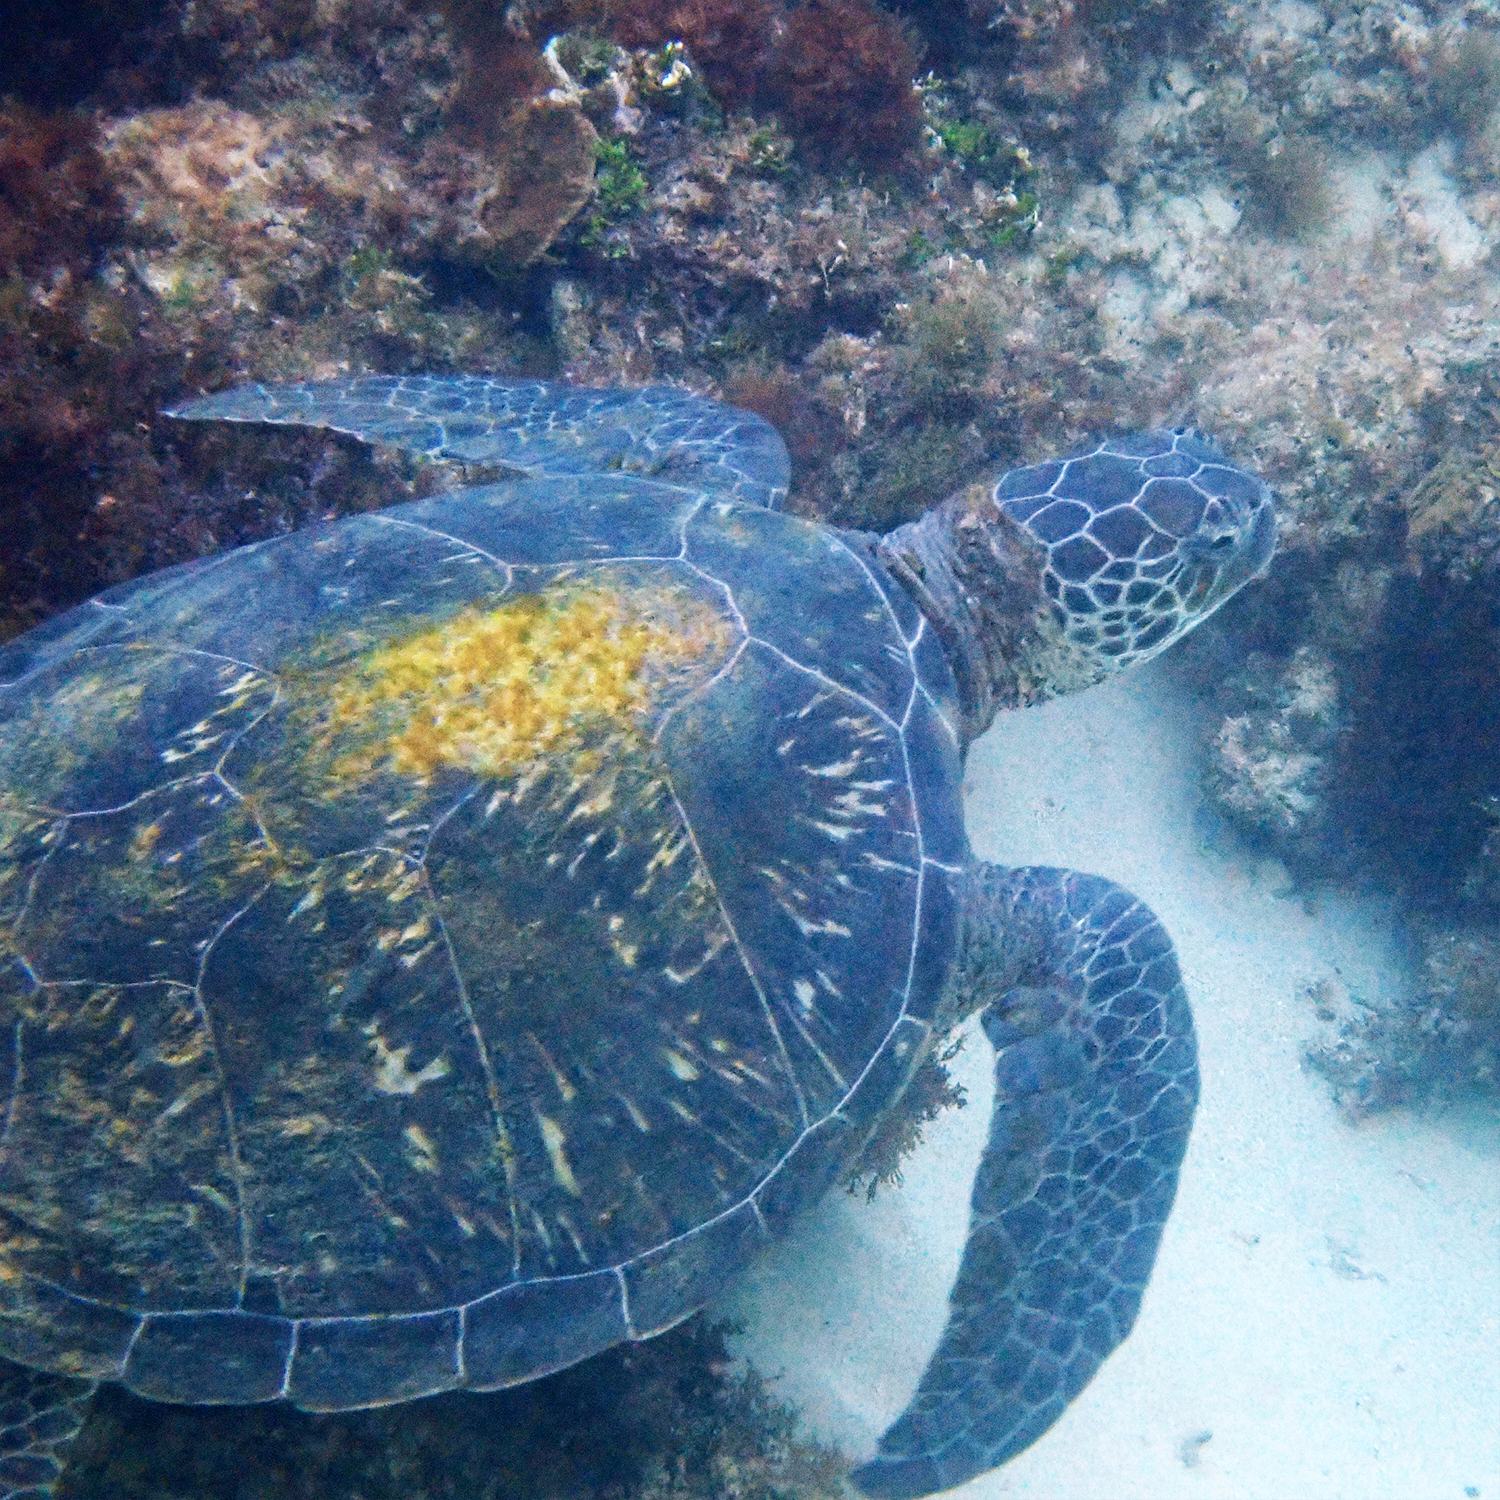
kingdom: Animalia
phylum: Chordata
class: Testudines
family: Cheloniidae
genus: Chelonia
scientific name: Chelonia mydas
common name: Green turtle
